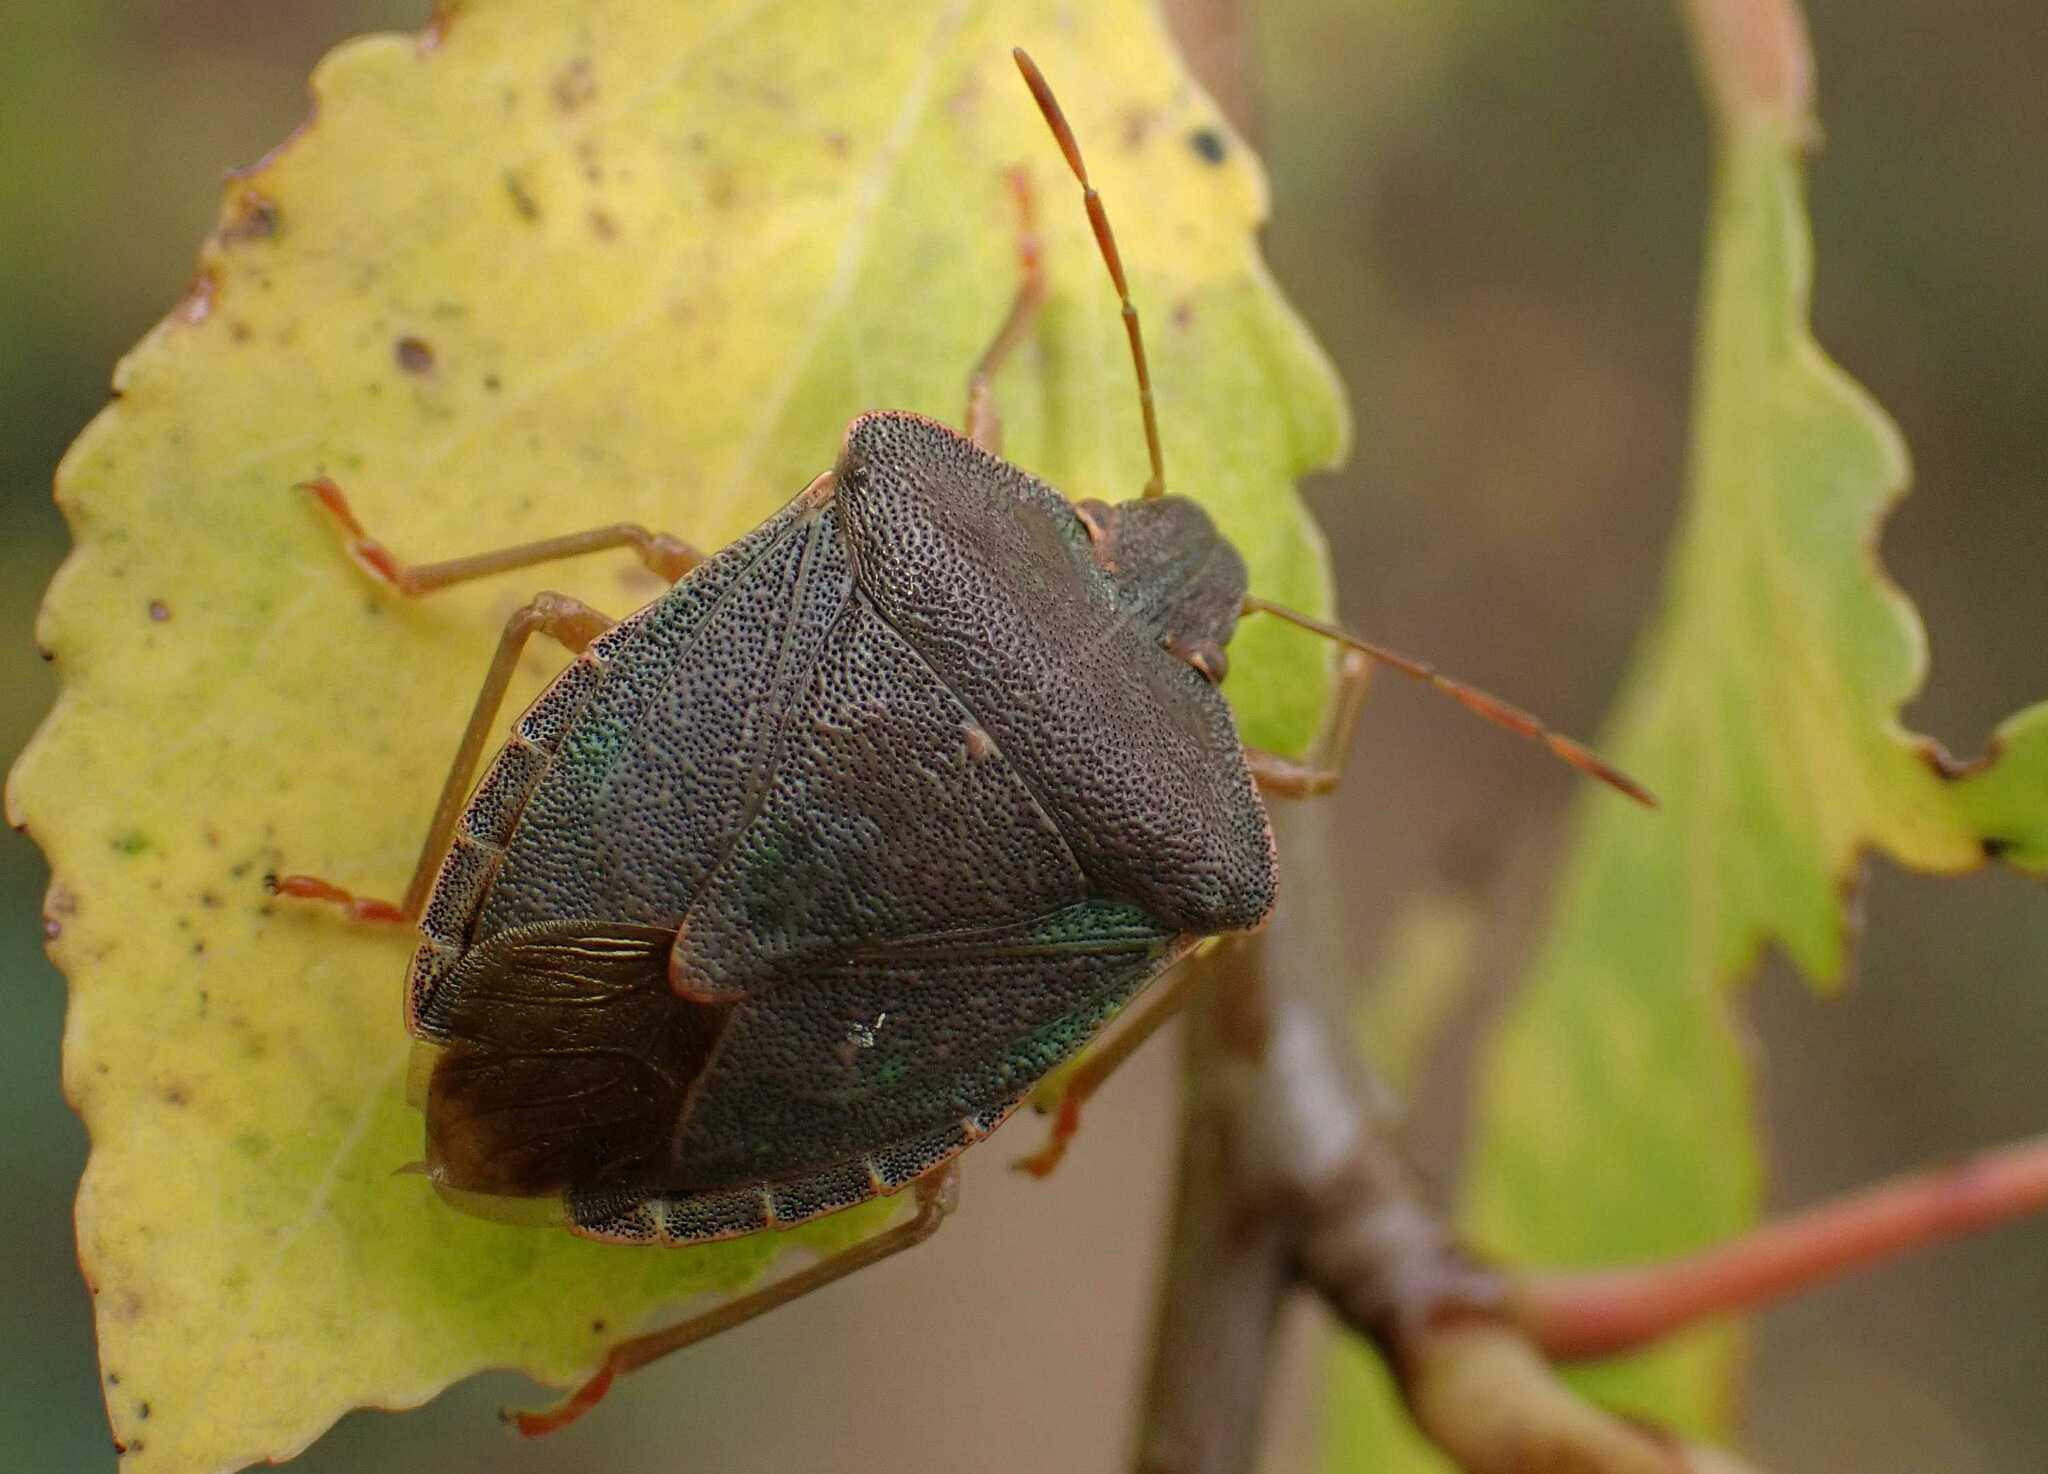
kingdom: Animalia
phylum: Arthropoda
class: Insecta
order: Hemiptera
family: Pentatomidae
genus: Palomena
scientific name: Palomena prasina
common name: Green shieldbug
